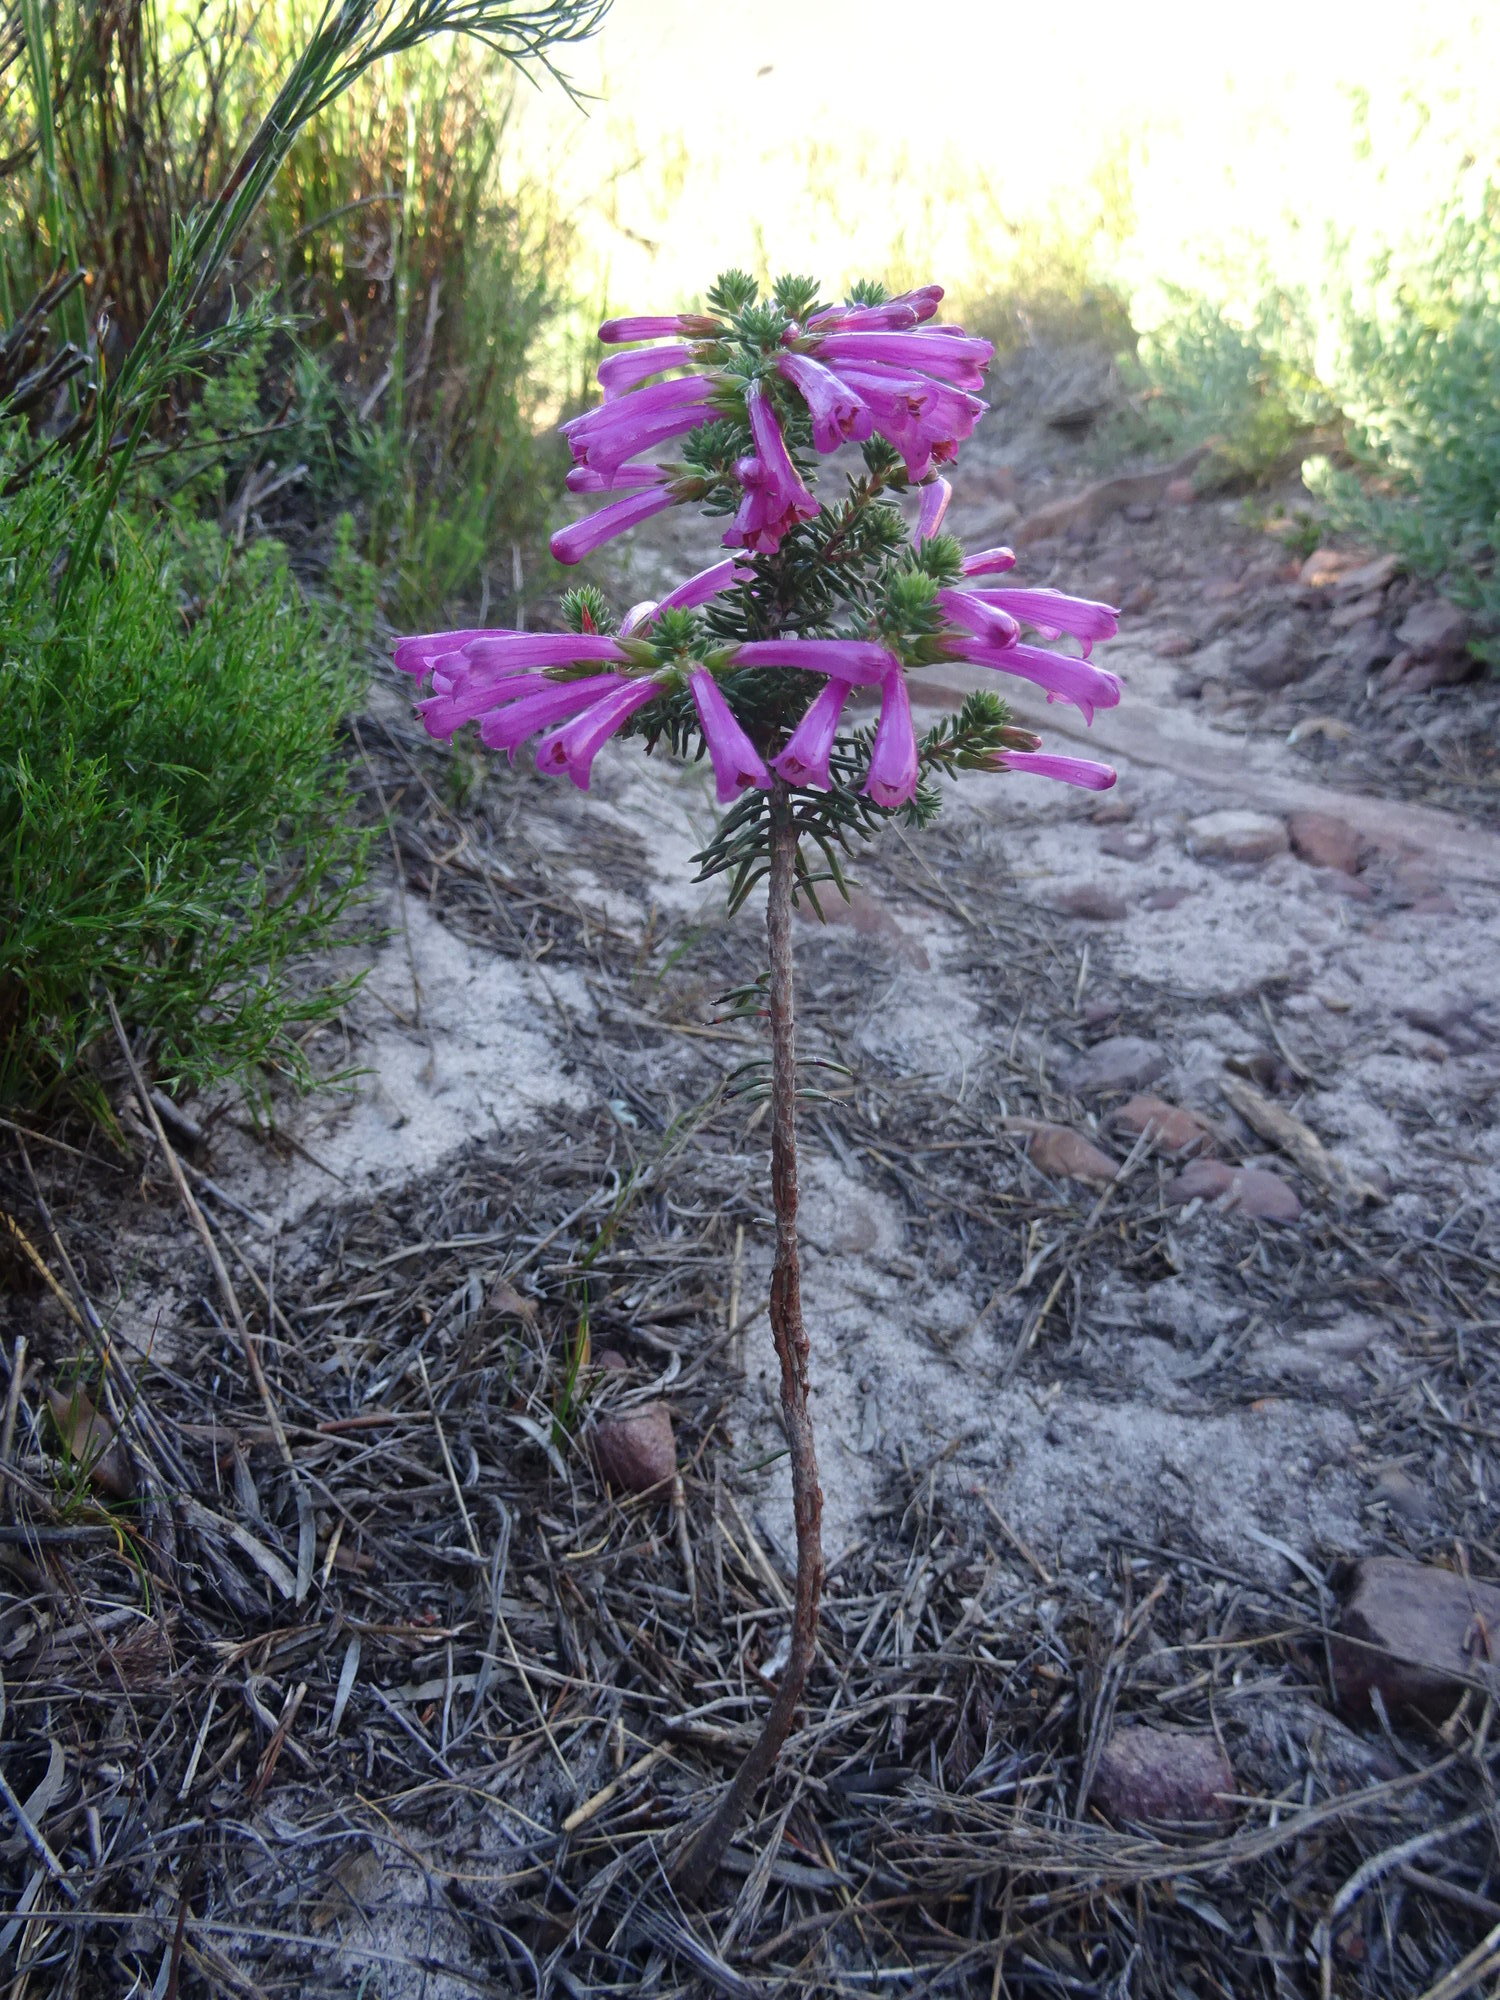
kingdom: Plantae
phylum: Tracheophyta
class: Magnoliopsida
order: Ericales
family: Ericaceae
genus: Erica
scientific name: Erica abietina
